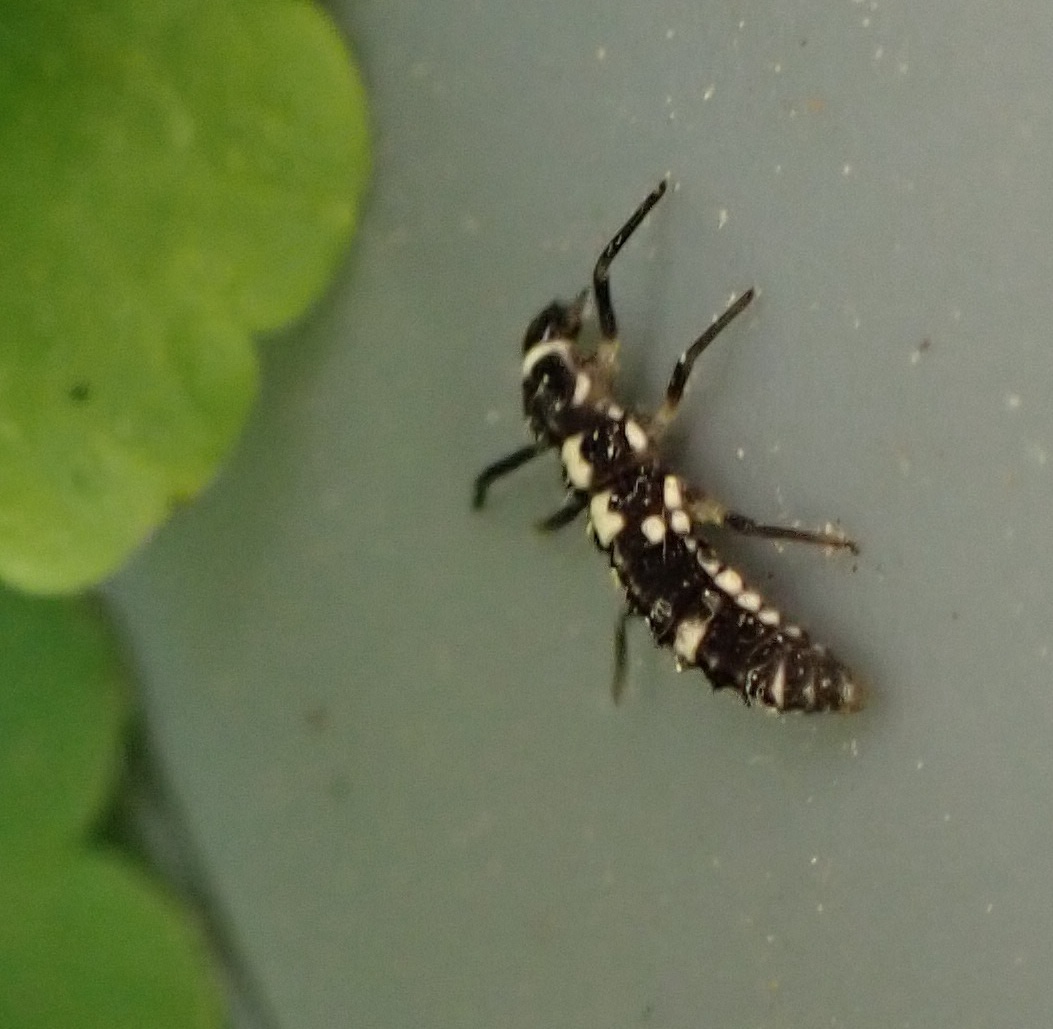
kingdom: Animalia
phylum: Arthropoda
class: Insecta
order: Coleoptera
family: Coccinellidae
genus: Propylaea
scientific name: Propylaea quatuordecimpunctata
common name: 14-spotted ladybird beetle
